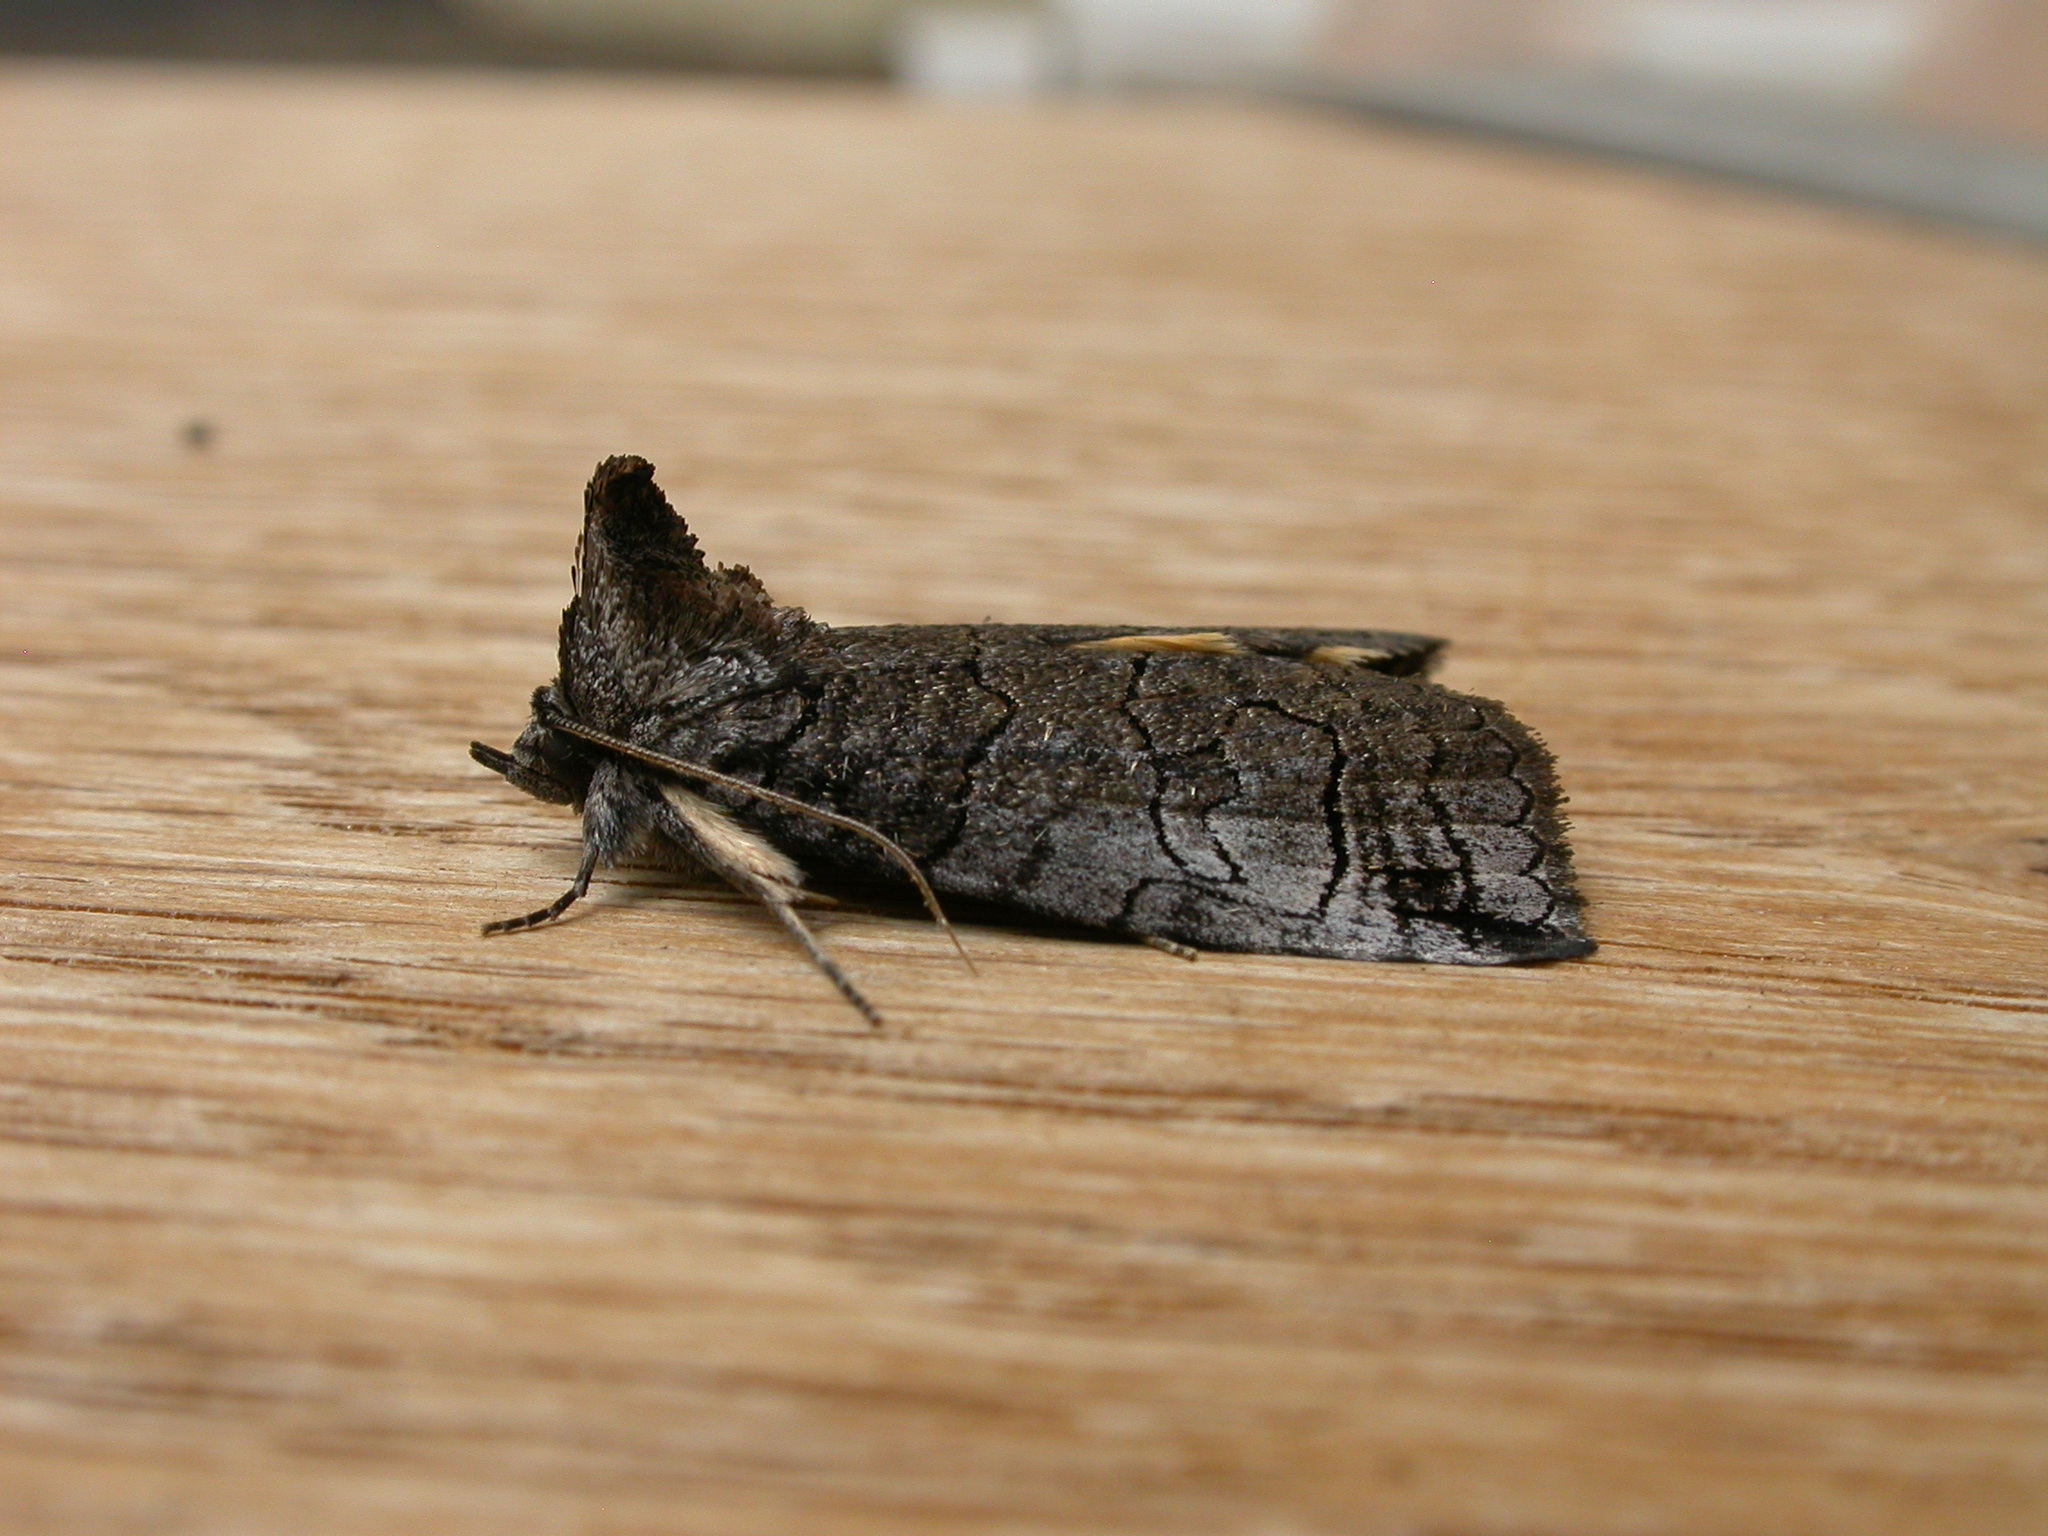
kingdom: Animalia
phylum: Arthropoda
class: Insecta
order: Lepidoptera
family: Erebidae
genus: Prorocopis
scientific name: Prorocopis euxantha
